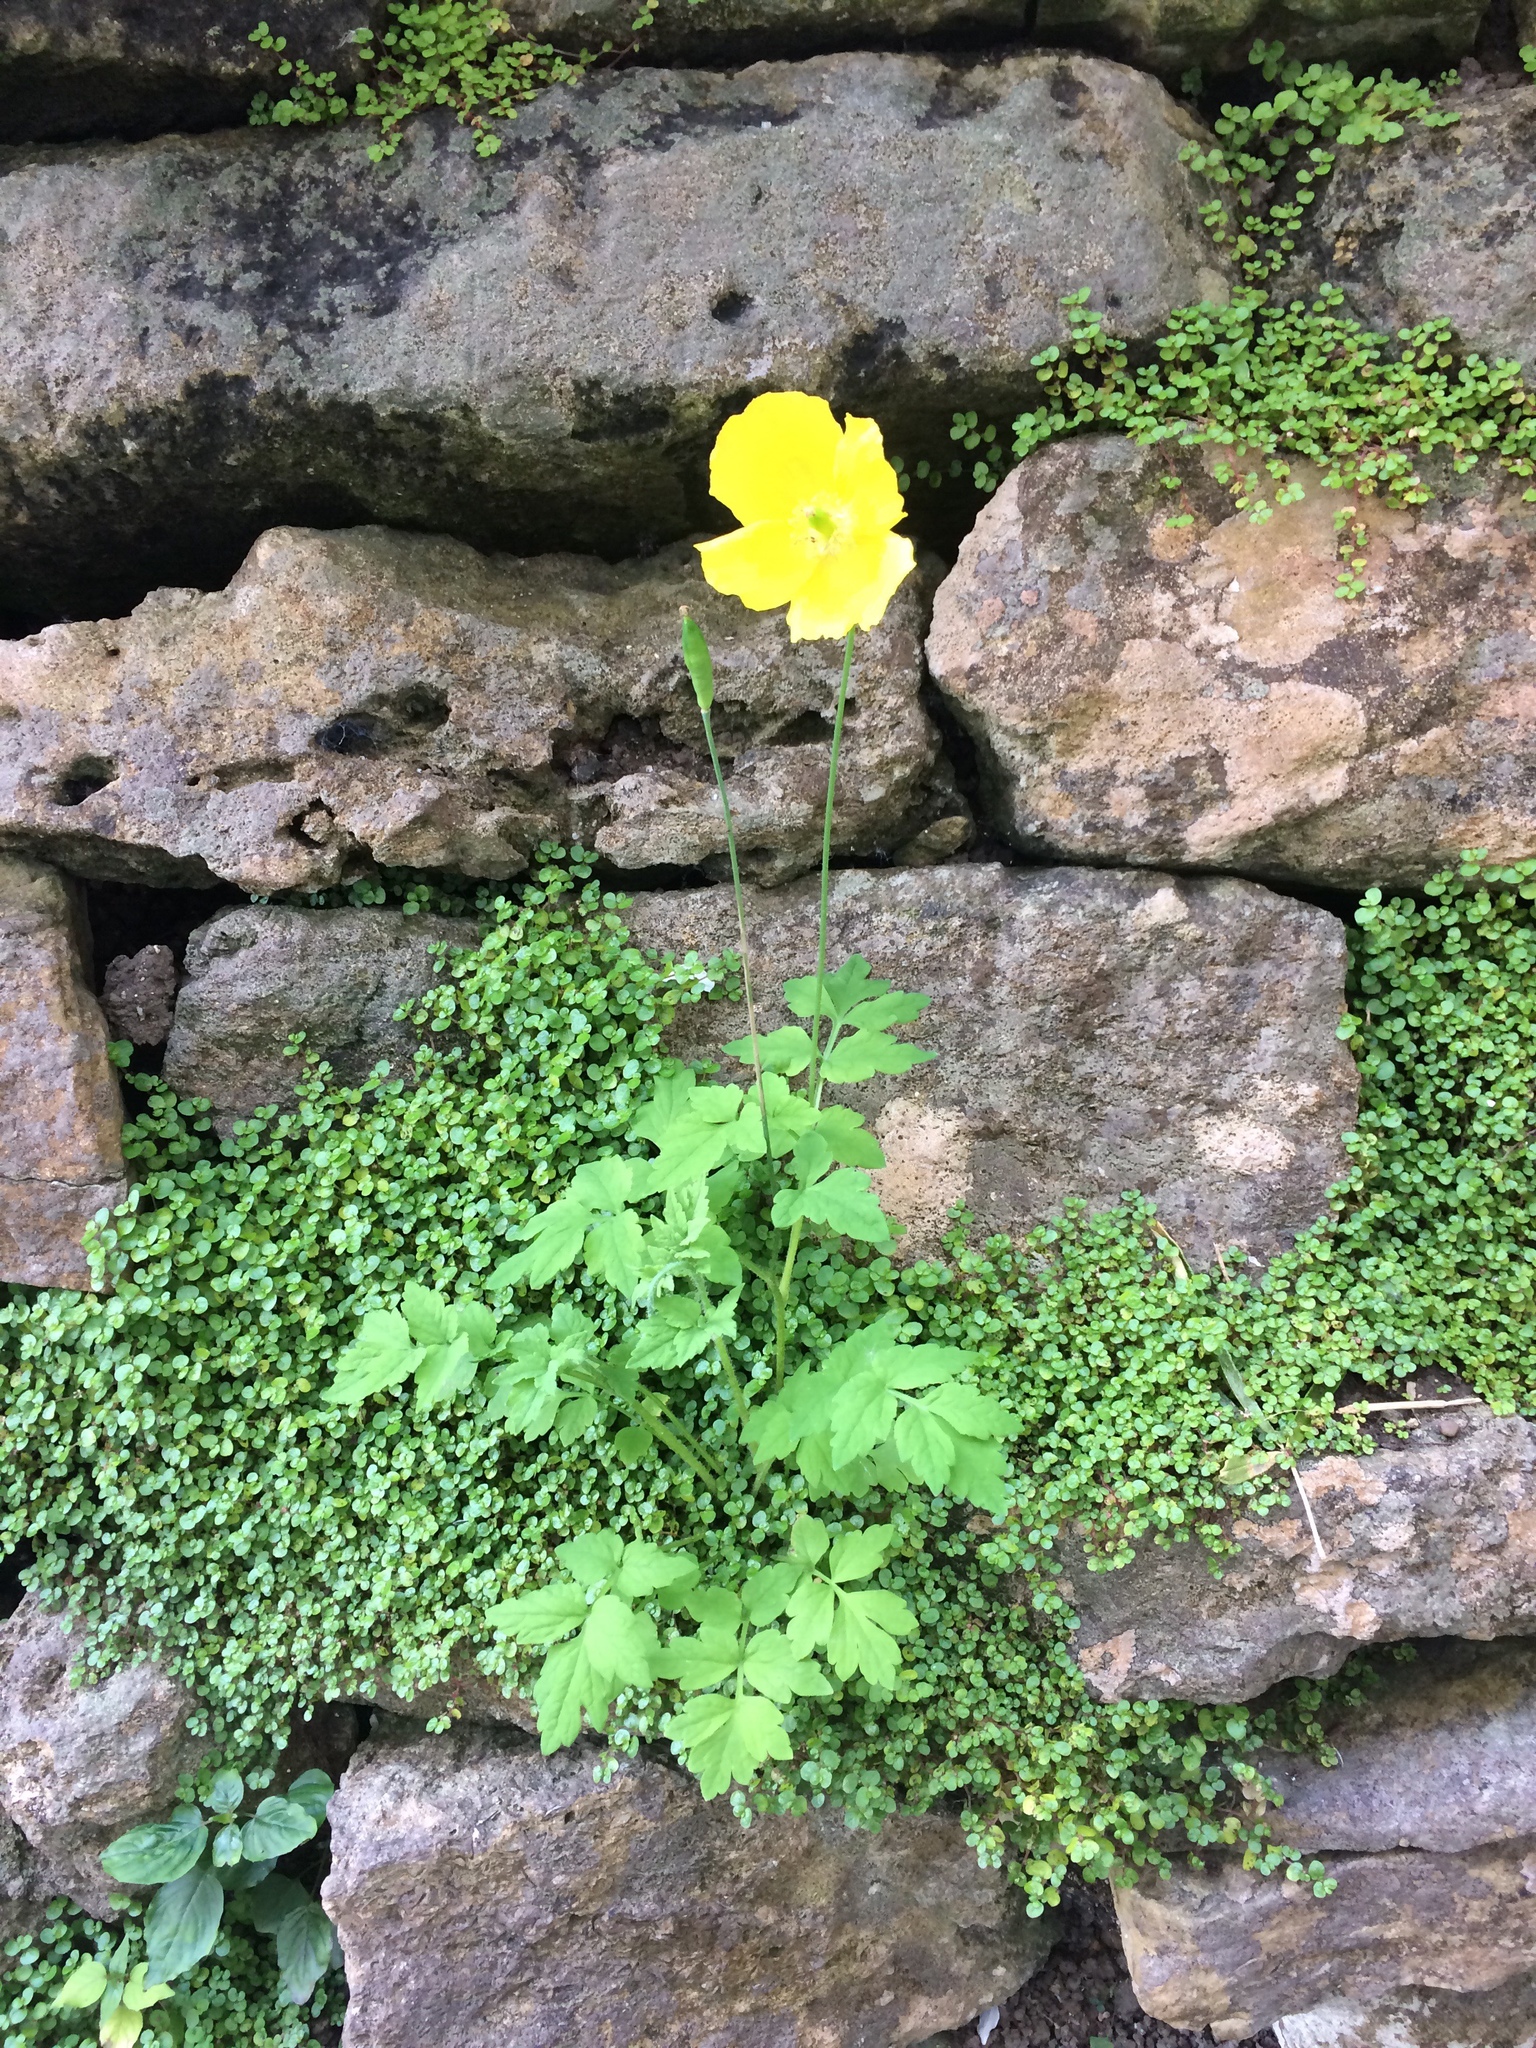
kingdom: Plantae
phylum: Tracheophyta
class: Magnoliopsida
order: Ranunculales
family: Papaveraceae
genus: Papaver
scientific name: Papaver cambricum
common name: Poppy
